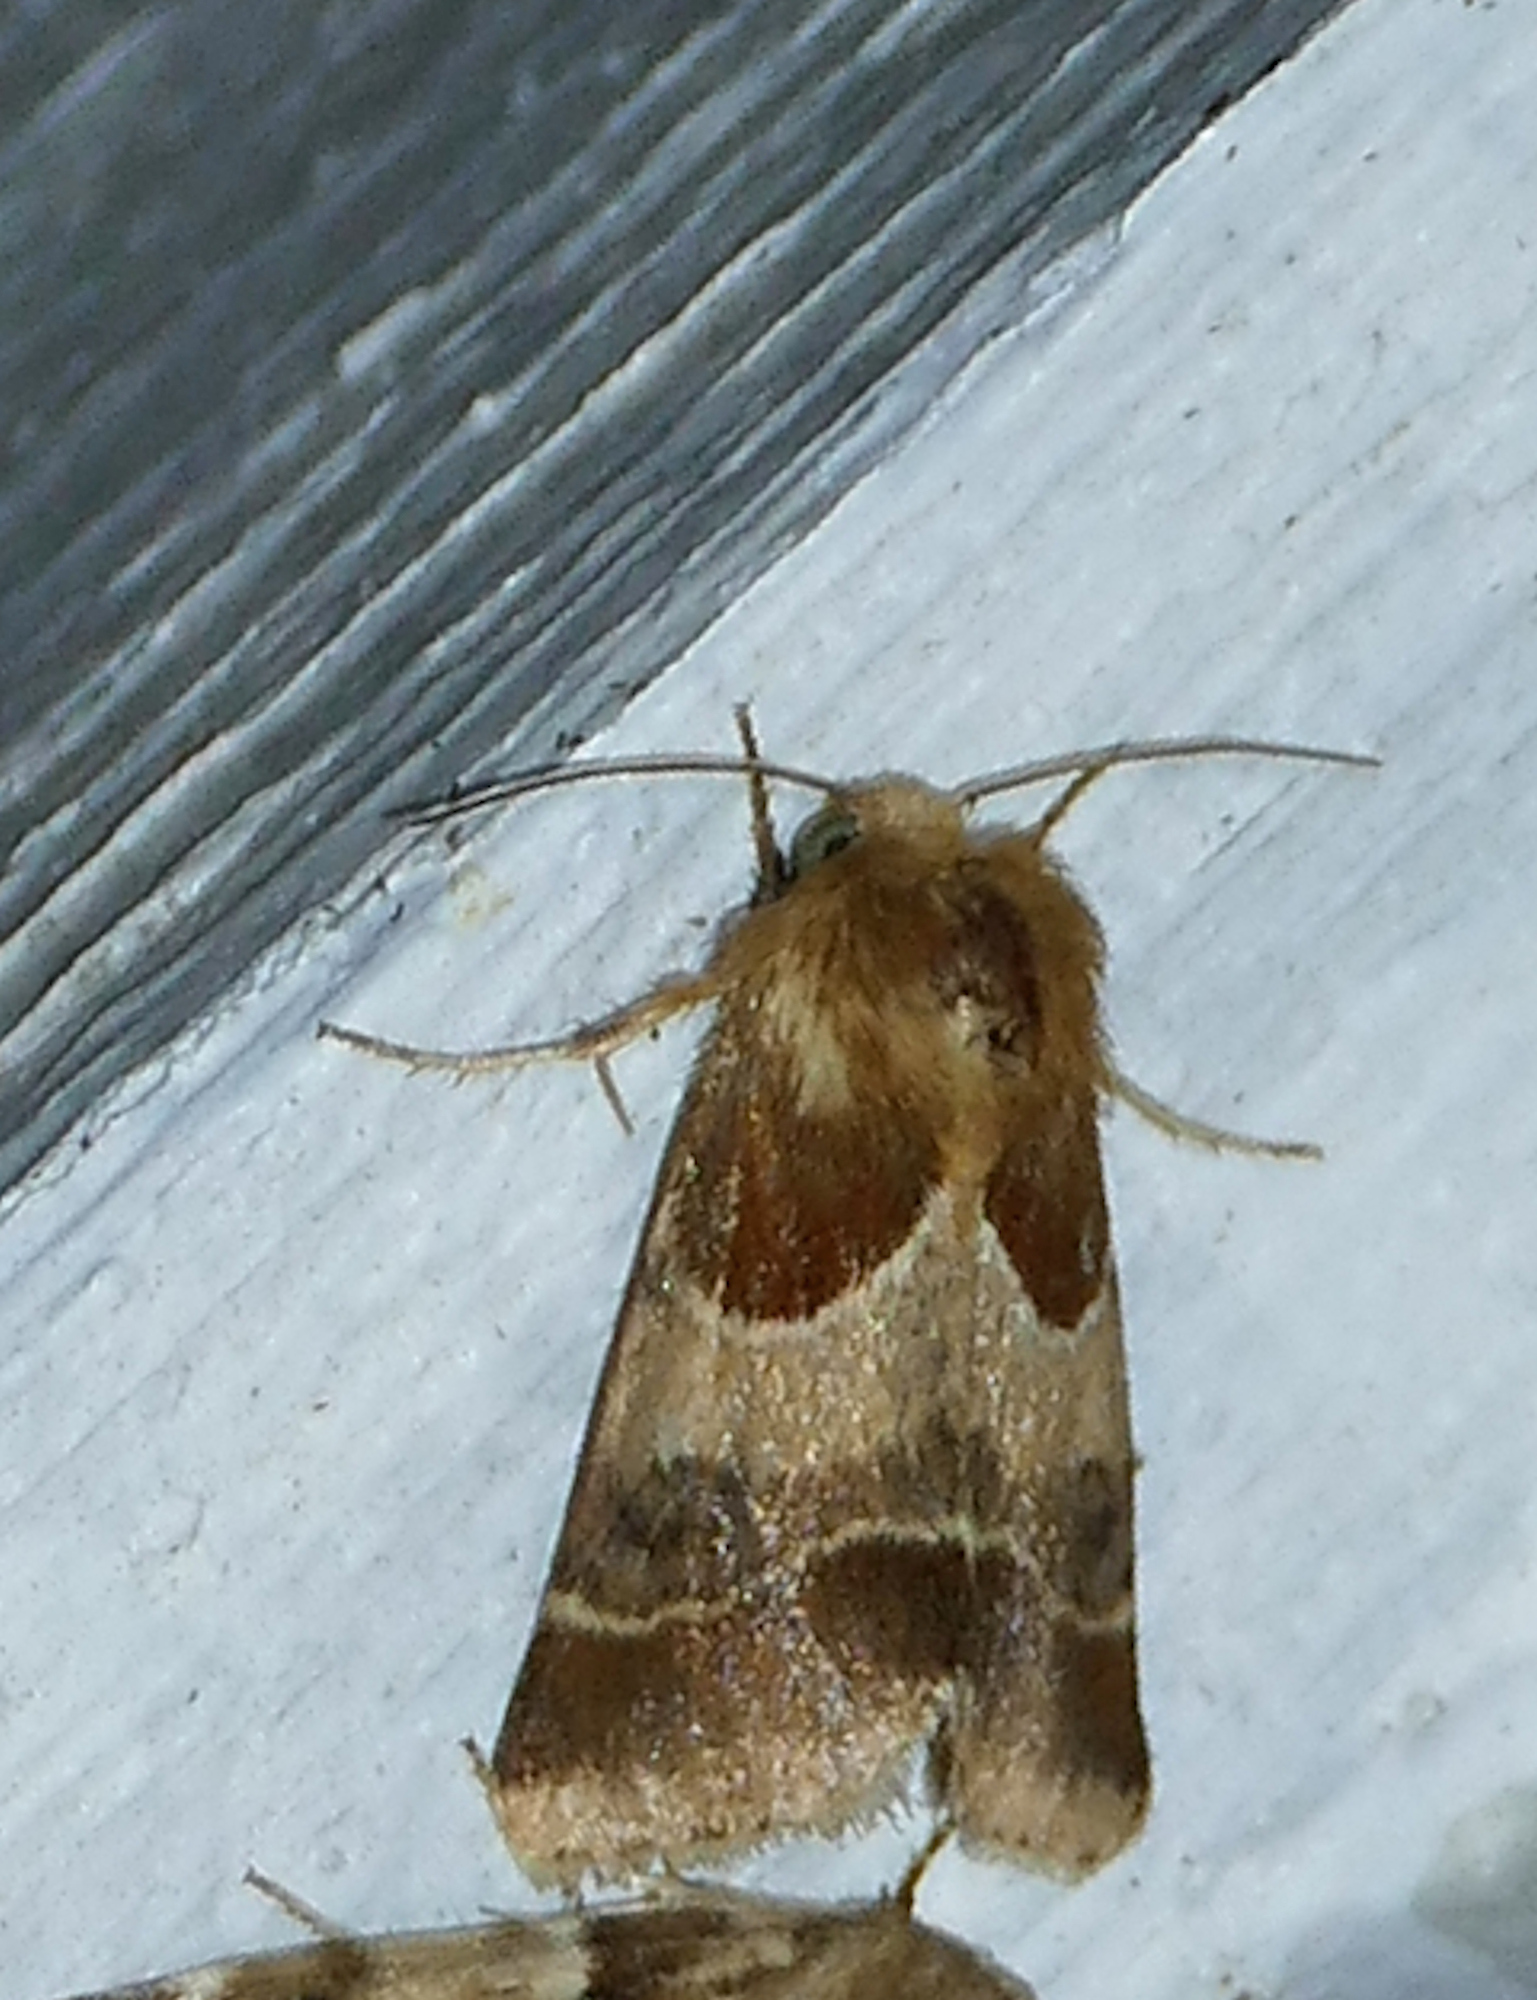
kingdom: Animalia
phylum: Arthropoda
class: Insecta
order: Lepidoptera
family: Noctuidae
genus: Schinia
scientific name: Schinia arcigera
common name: Arcigera flower moth
